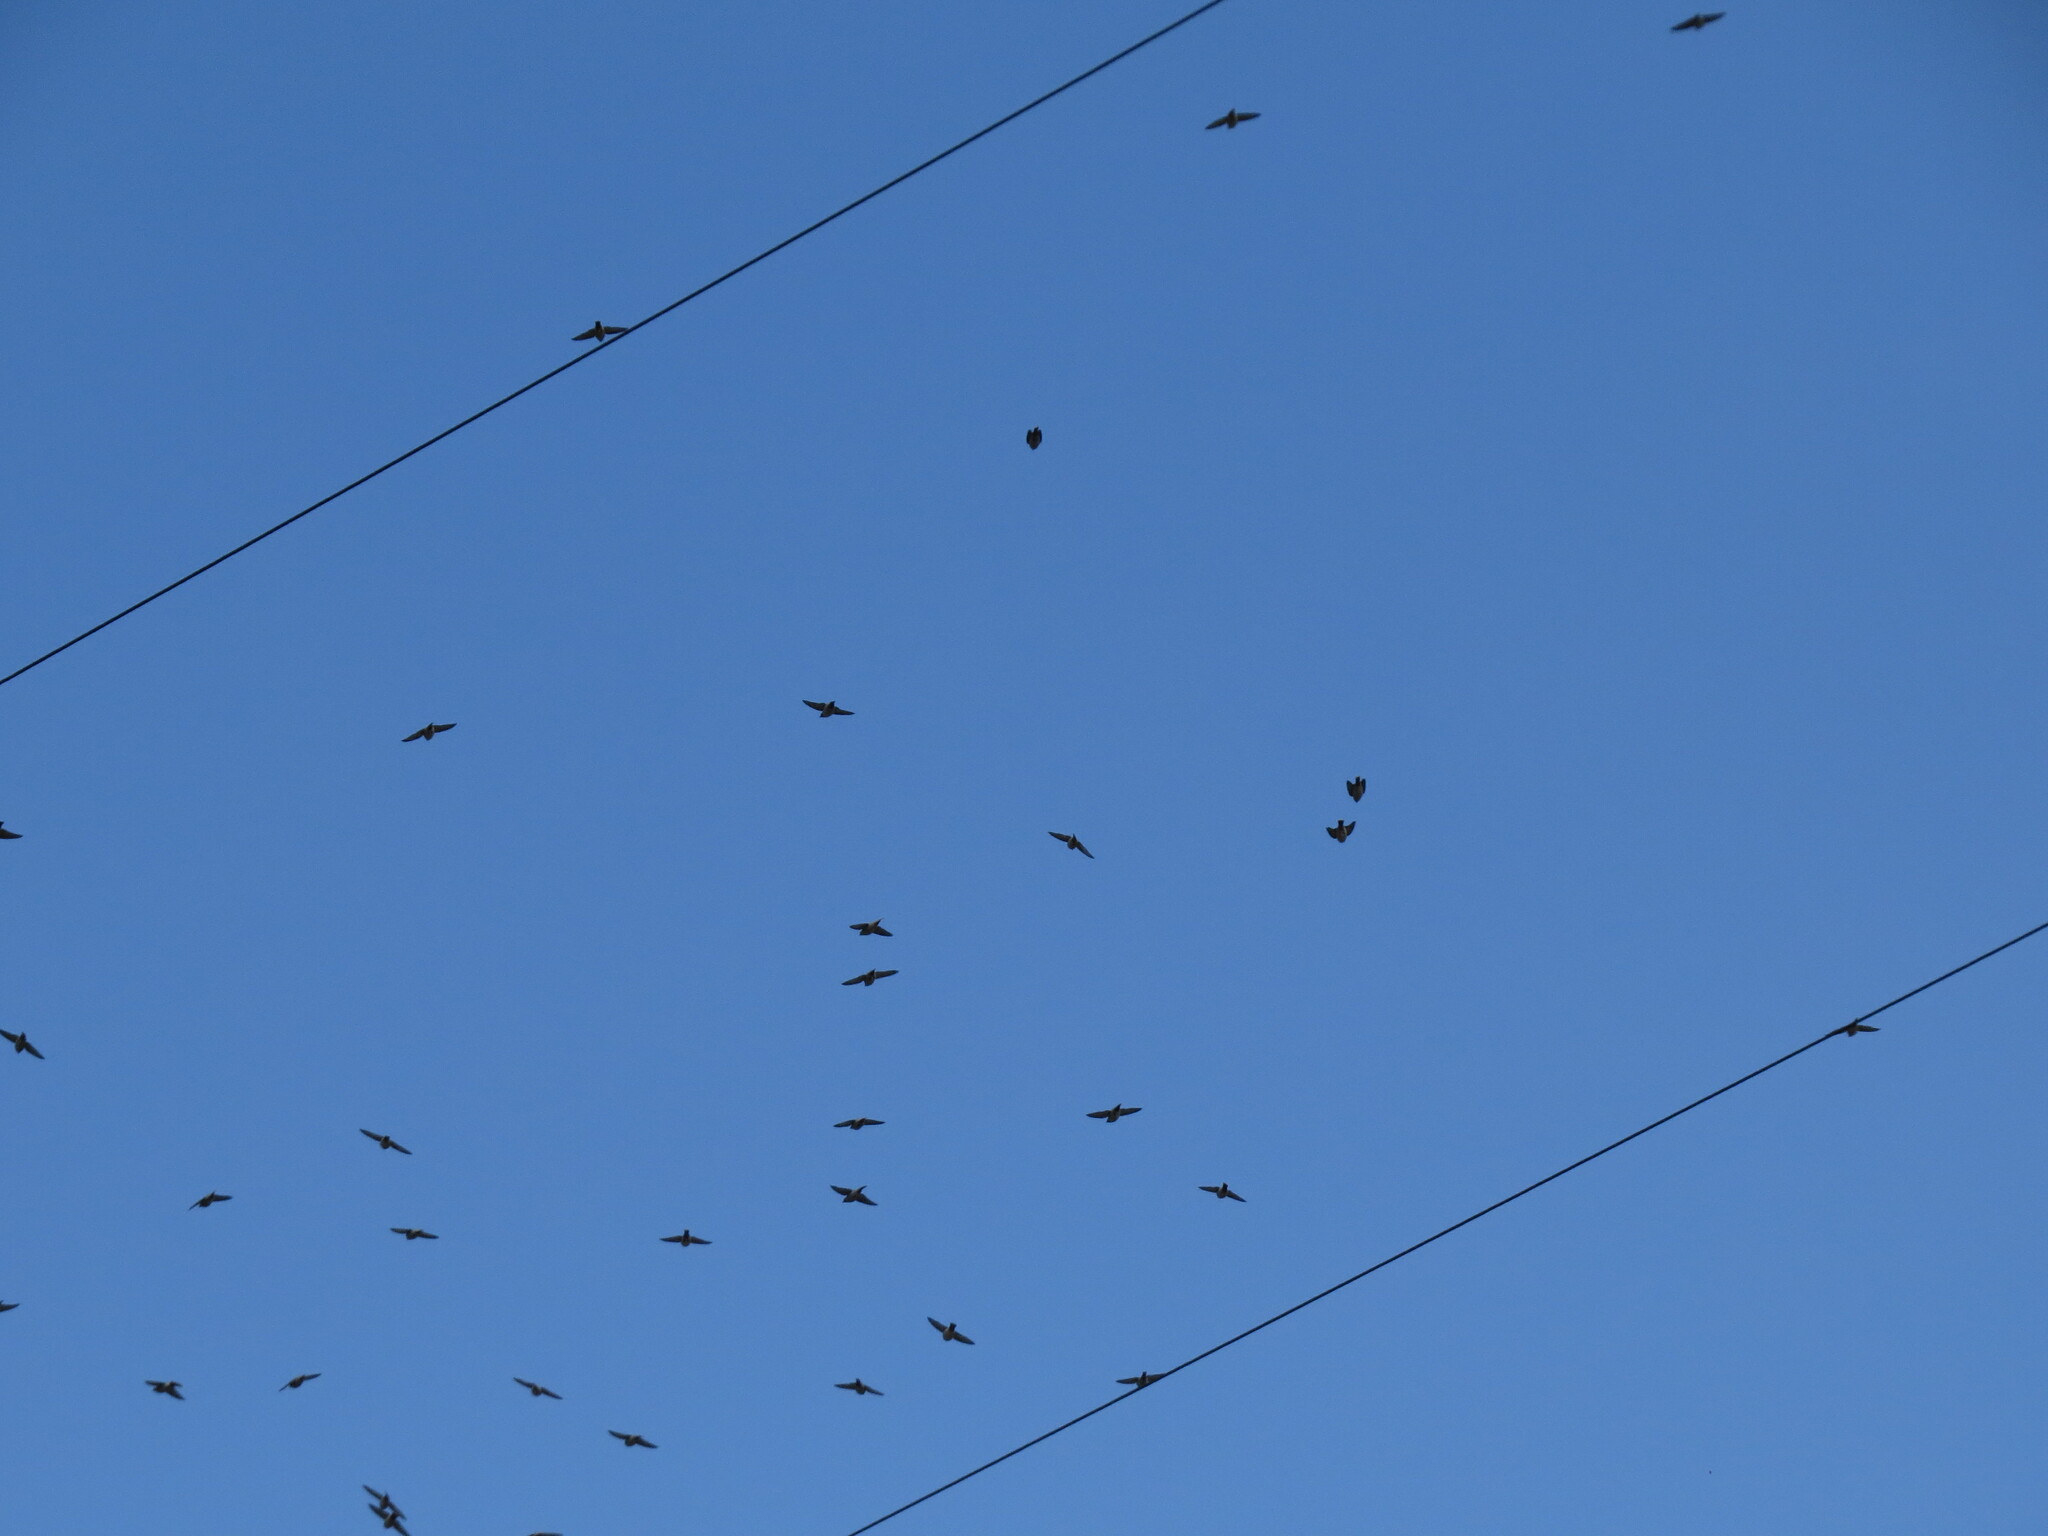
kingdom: Animalia
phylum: Chordata
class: Aves
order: Passeriformes
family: Bombycillidae
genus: Bombycilla
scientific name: Bombycilla garrulus
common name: Bohemian waxwing
